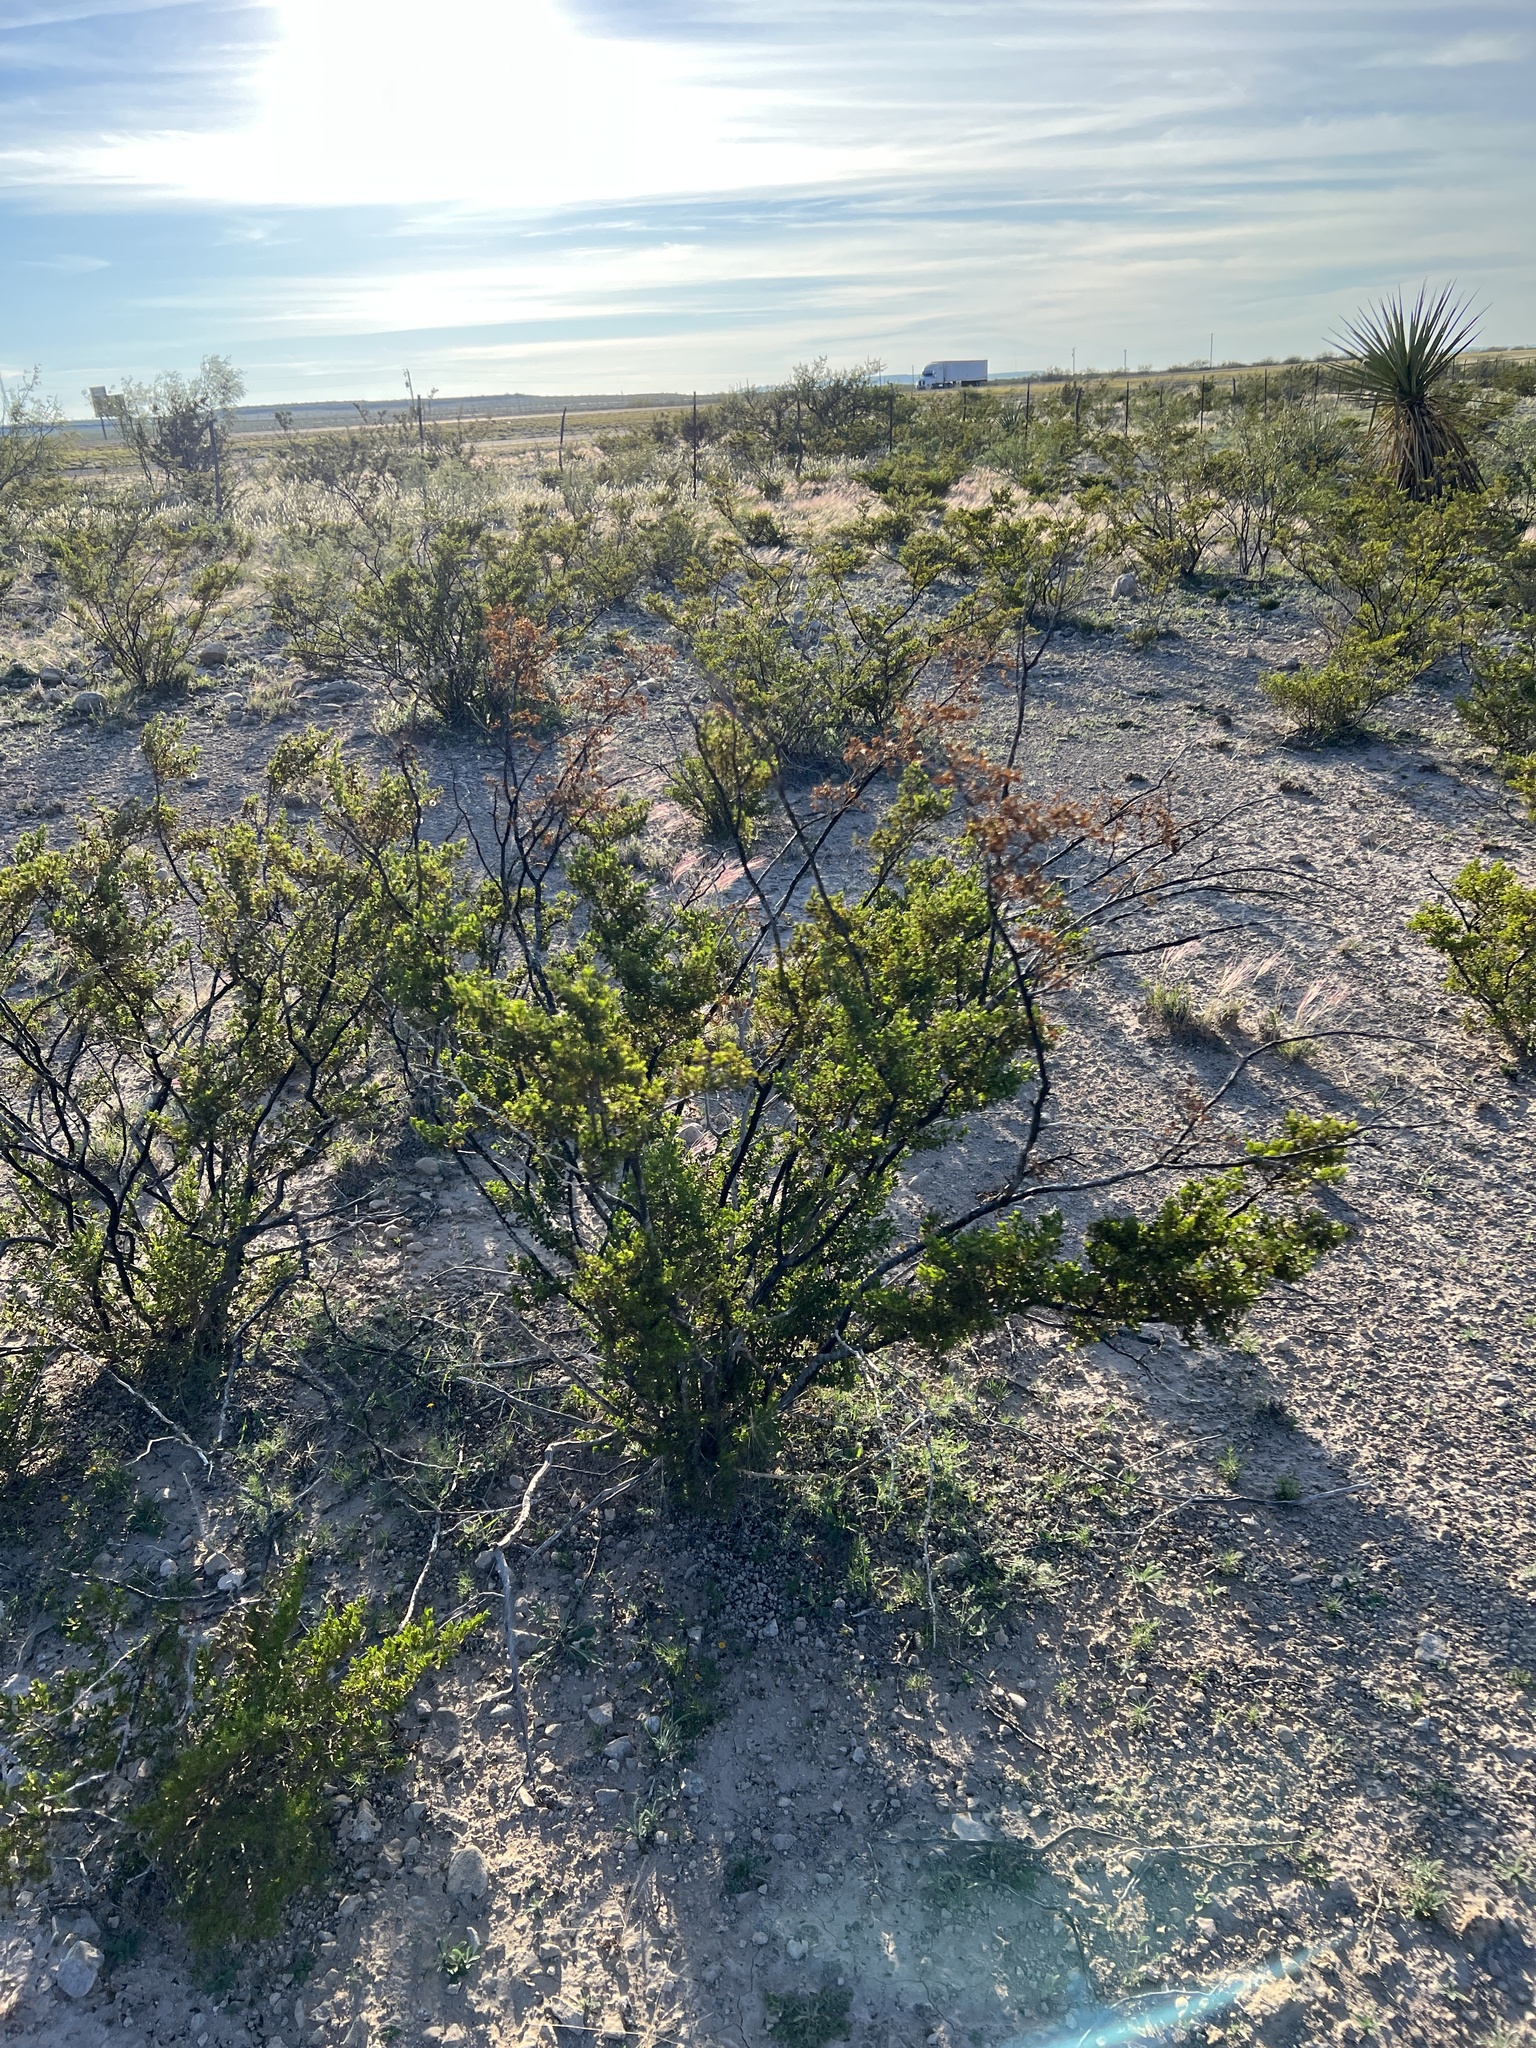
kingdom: Plantae
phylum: Tracheophyta
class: Magnoliopsida
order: Zygophyllales
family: Zygophyllaceae
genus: Larrea
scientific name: Larrea tridentata
